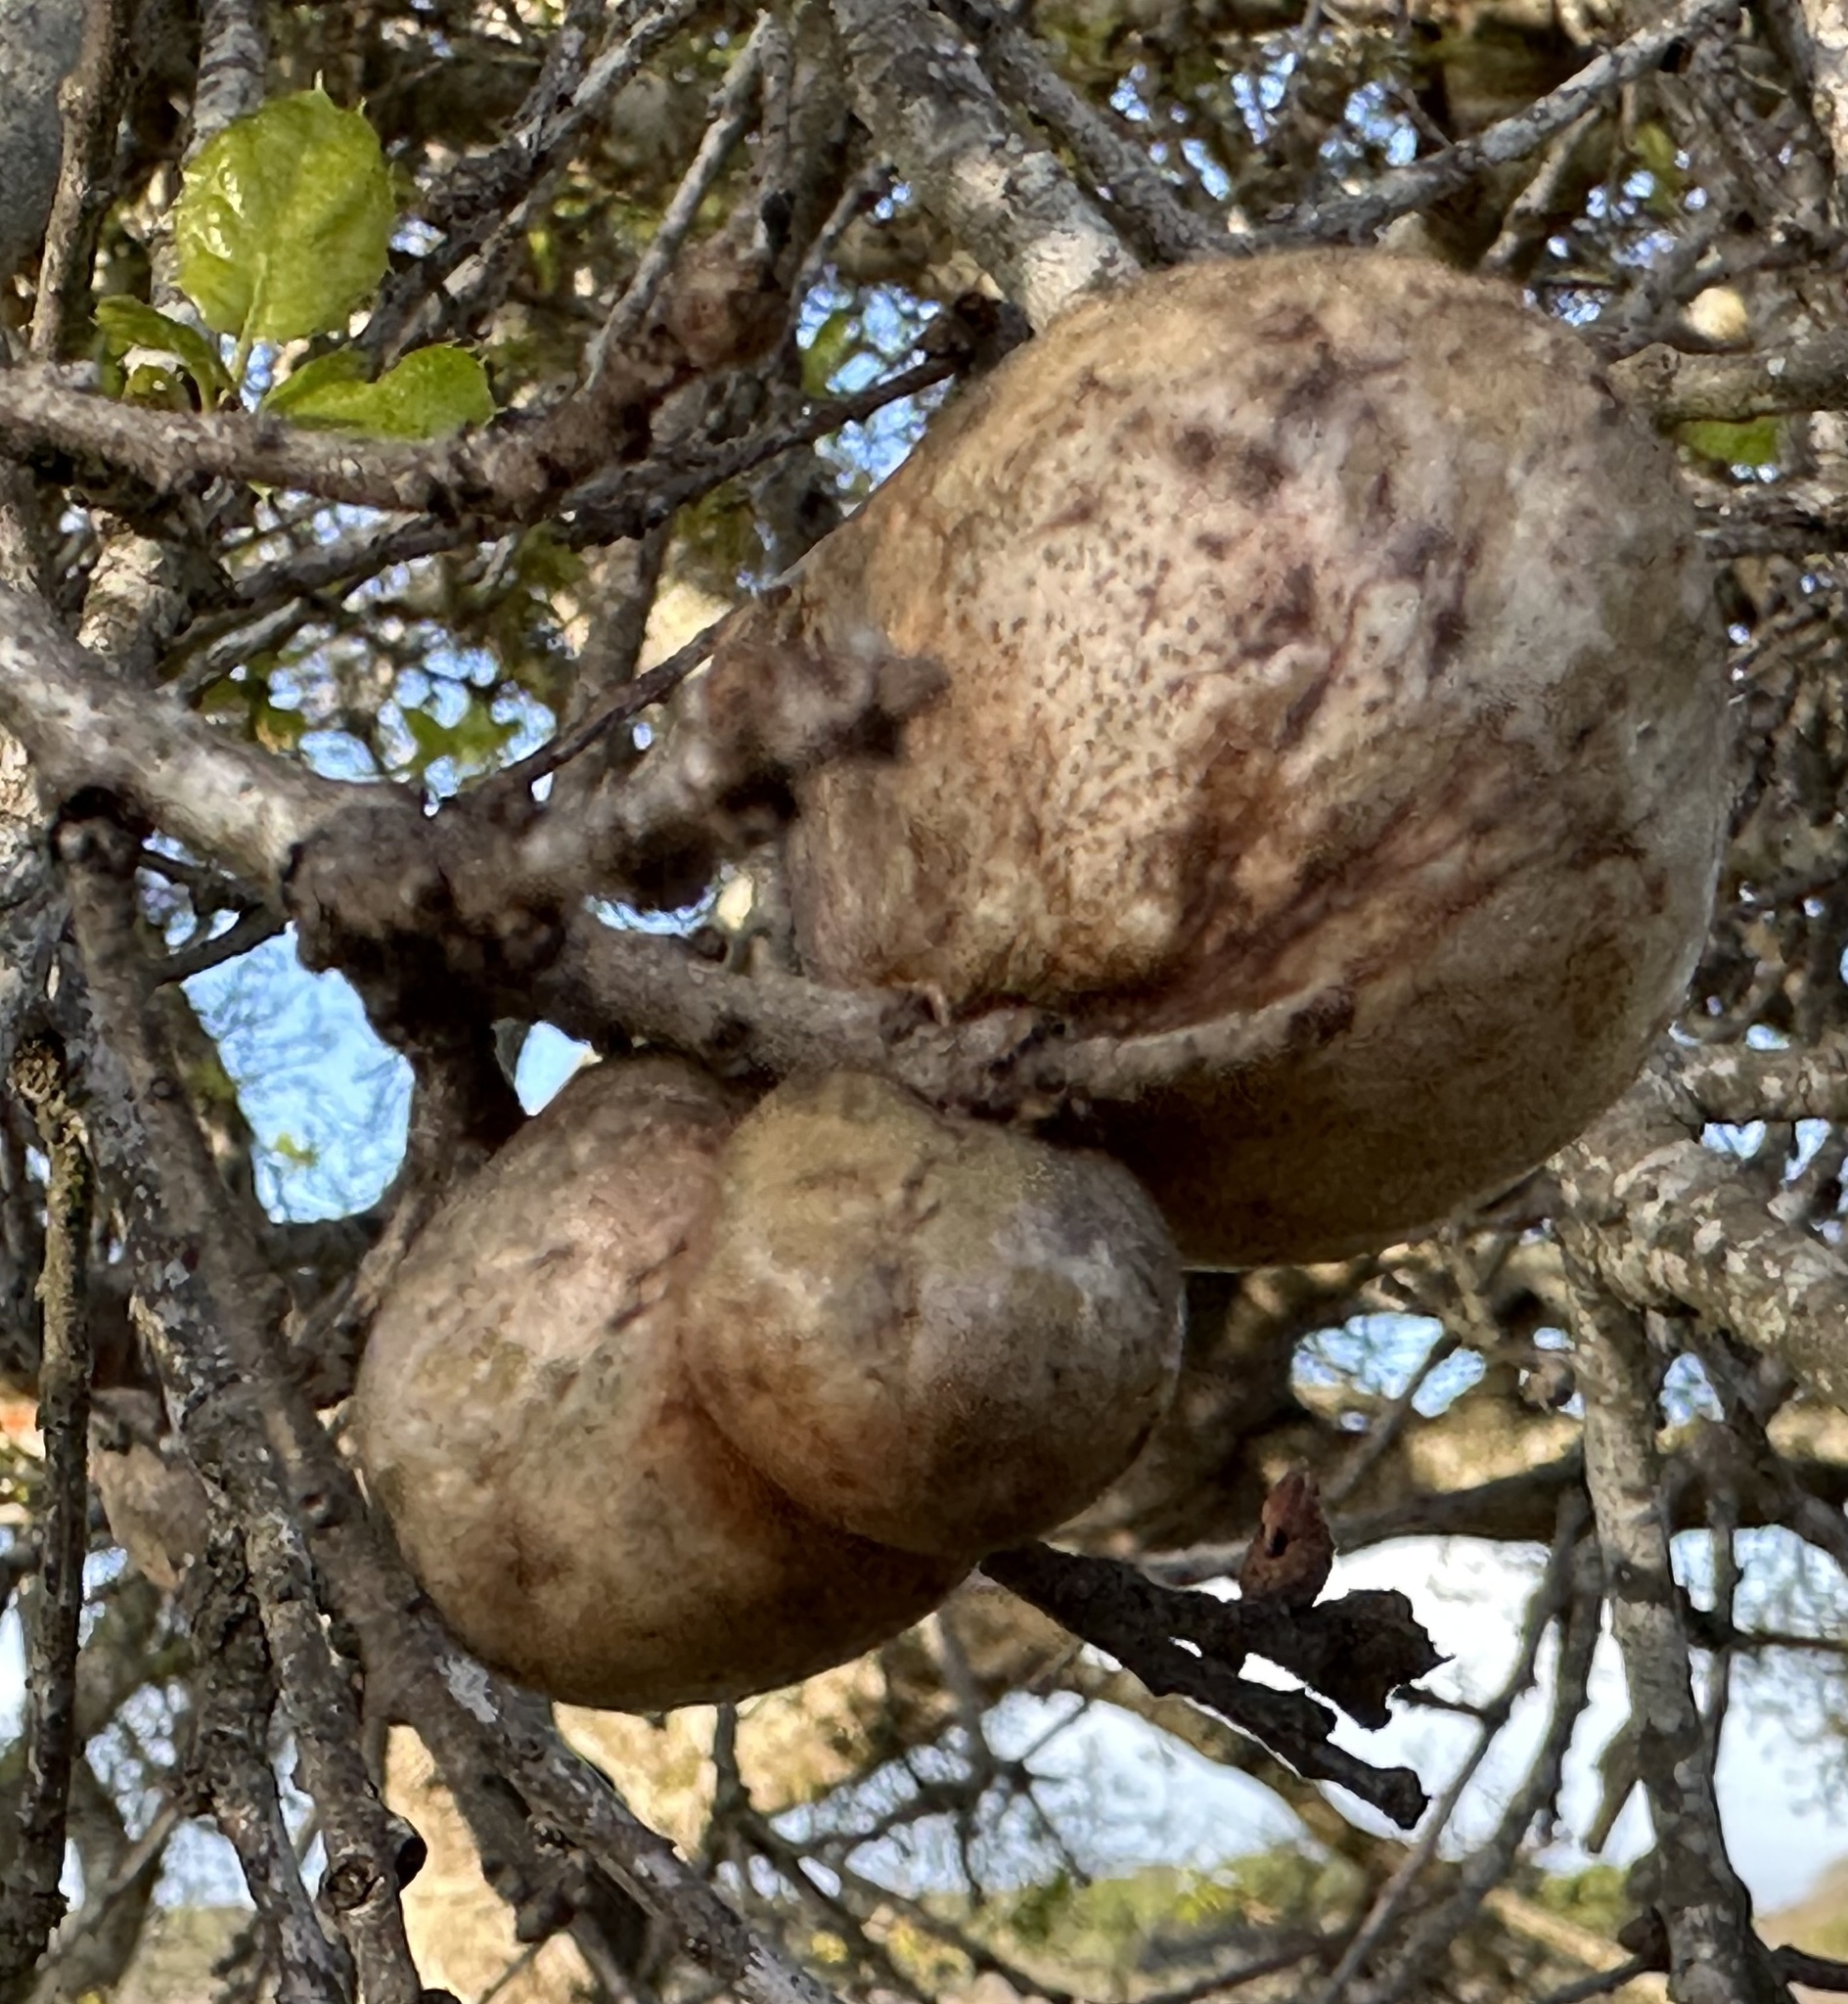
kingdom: Animalia
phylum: Arthropoda
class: Insecta
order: Hymenoptera
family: Cynipidae
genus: Andricus
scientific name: Andricus quercuscalifornicus
